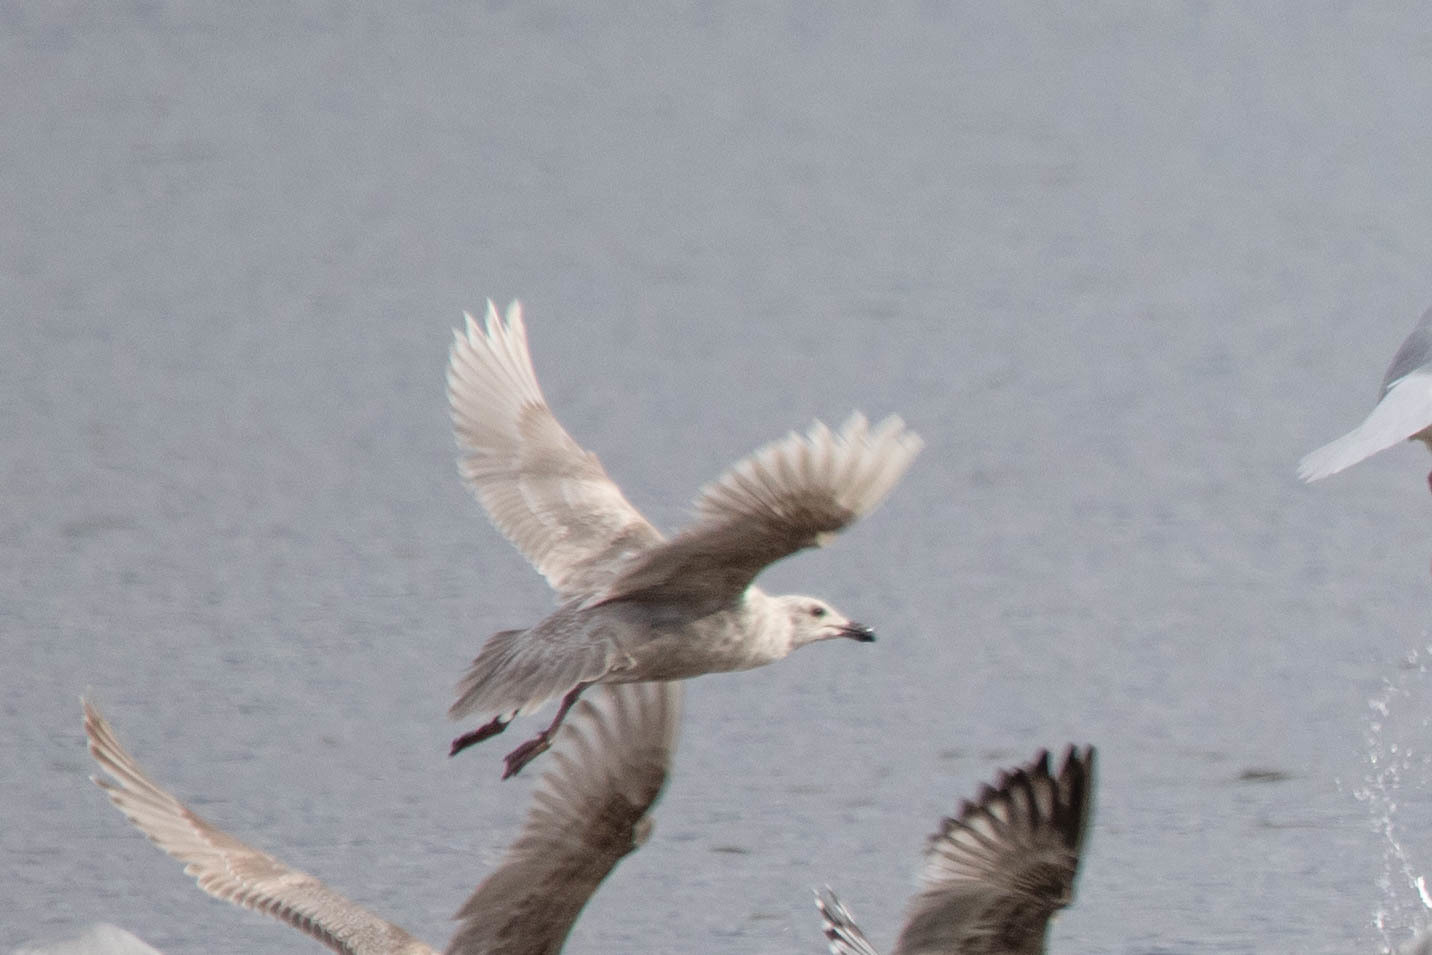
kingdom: Animalia
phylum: Chordata
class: Aves
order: Charadriiformes
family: Laridae
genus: Larus
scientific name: Larus glaucescens
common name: Glaucous-winged gull
